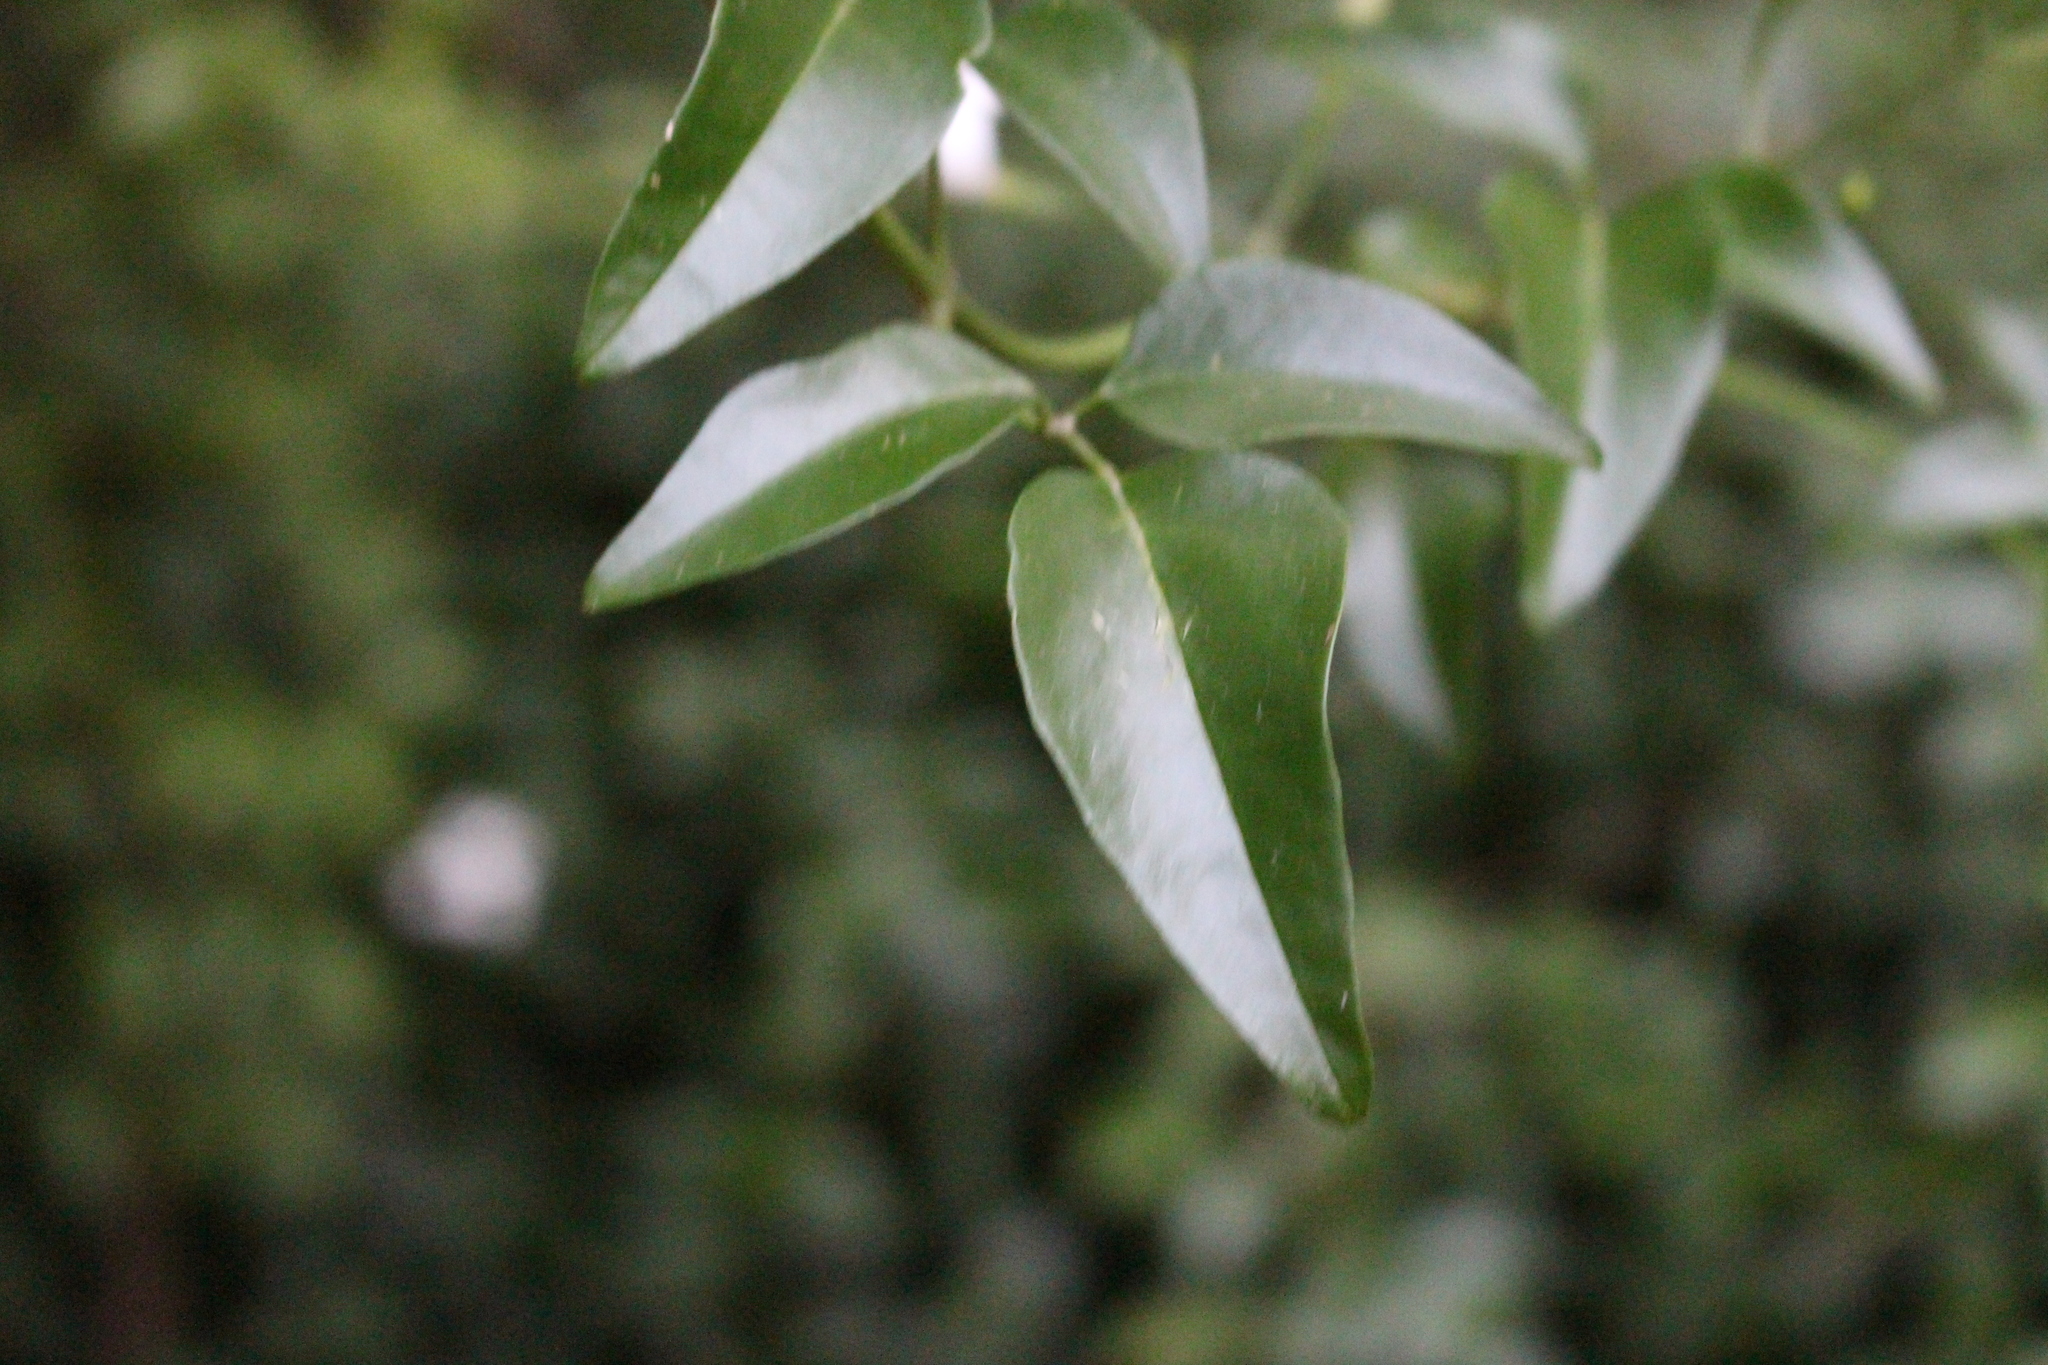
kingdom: Plantae
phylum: Tracheophyta
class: Magnoliopsida
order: Lamiales
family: Oleaceae
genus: Jasminum
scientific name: Jasminum polyanthum
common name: Pink jasmine
